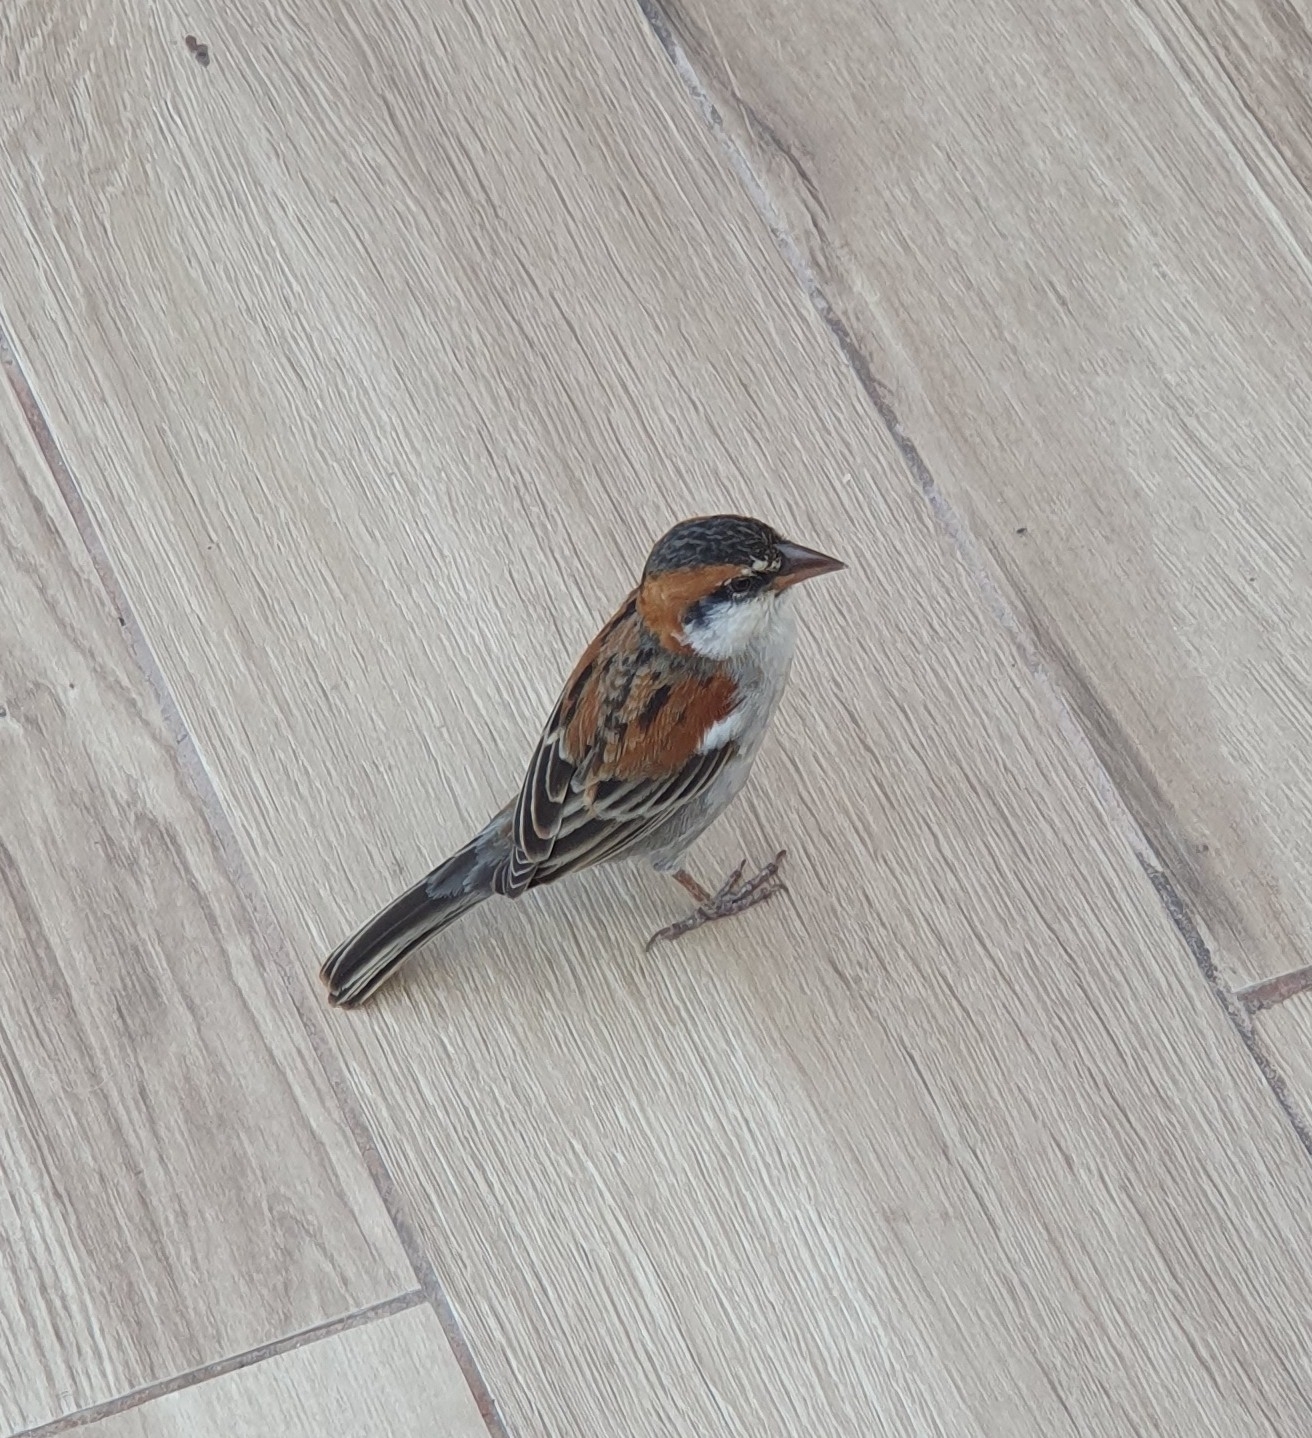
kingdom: Animalia
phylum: Chordata
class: Aves
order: Passeriformes
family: Passeridae
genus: Passer
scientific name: Passer iagoensis
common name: Iago sparrow
